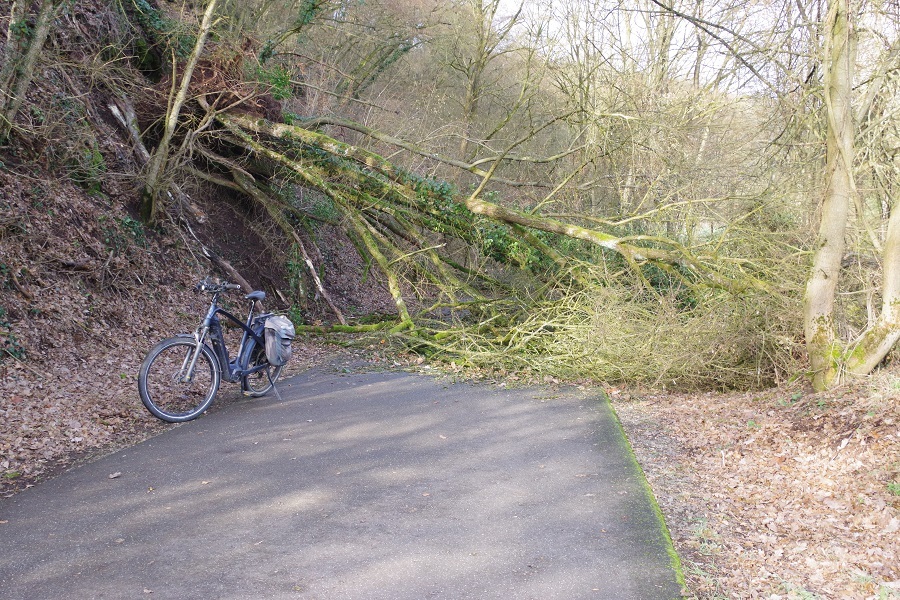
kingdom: Plantae
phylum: Tracheophyta
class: Magnoliopsida
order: Sapindales
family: Sapindaceae
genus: Acer
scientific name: Acer campestre
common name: Field maple
